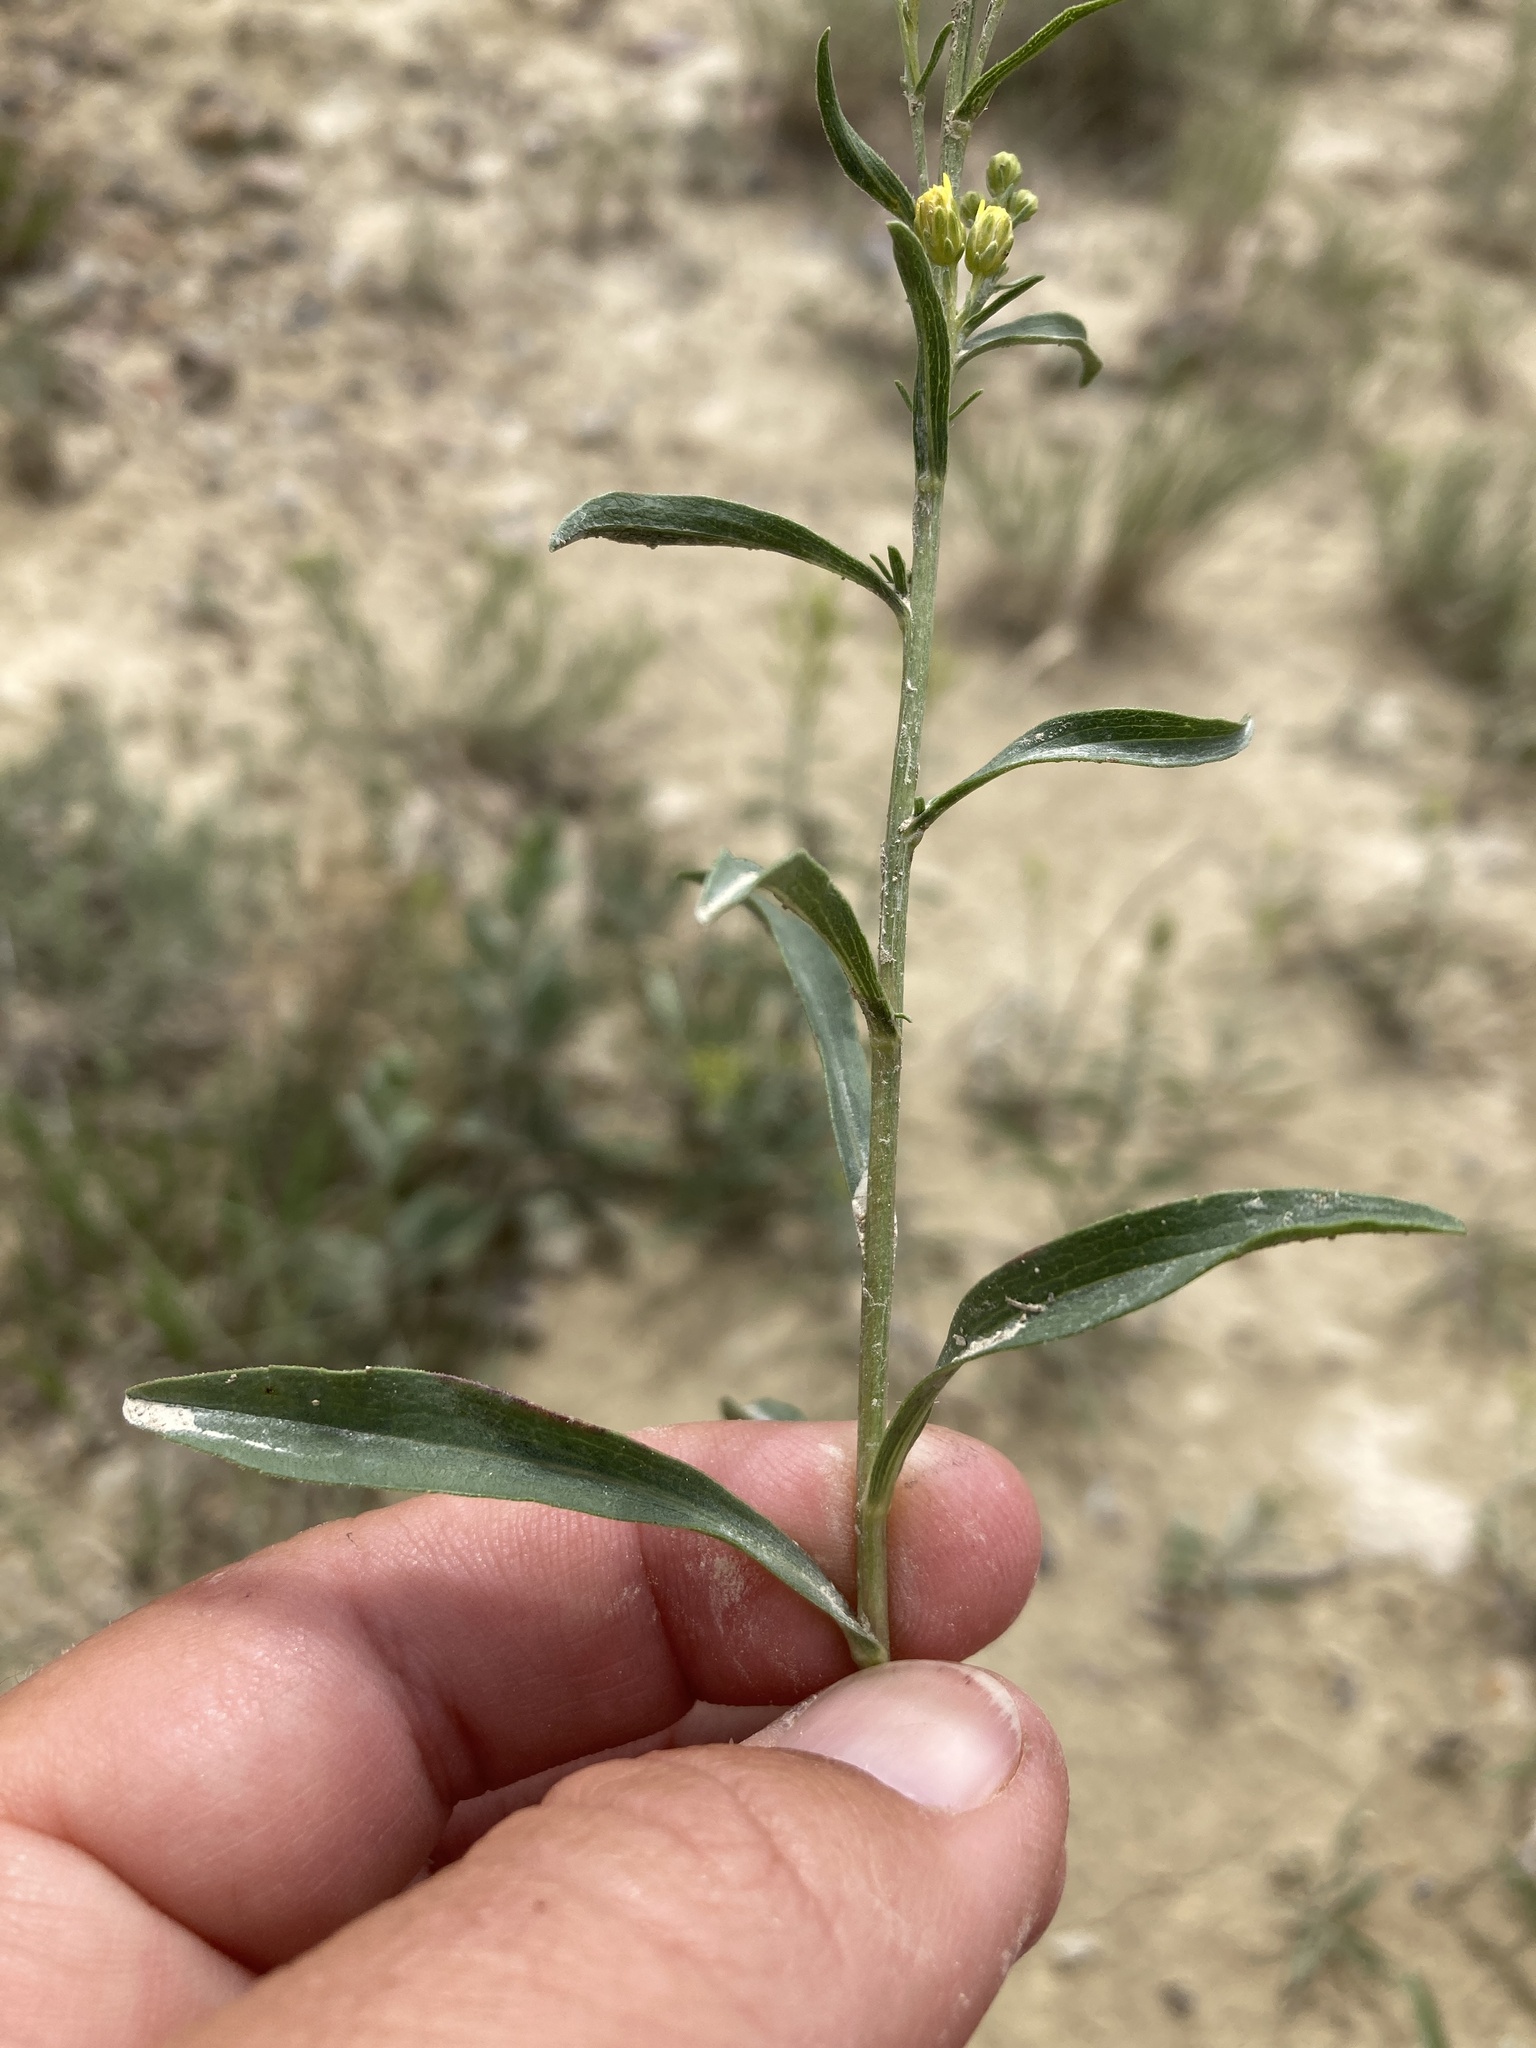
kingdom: Plantae
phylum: Tracheophyta
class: Magnoliopsida
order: Asterales
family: Asteraceae
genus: Solidago
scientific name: Solidago missouriensis
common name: Prairie goldenrod
